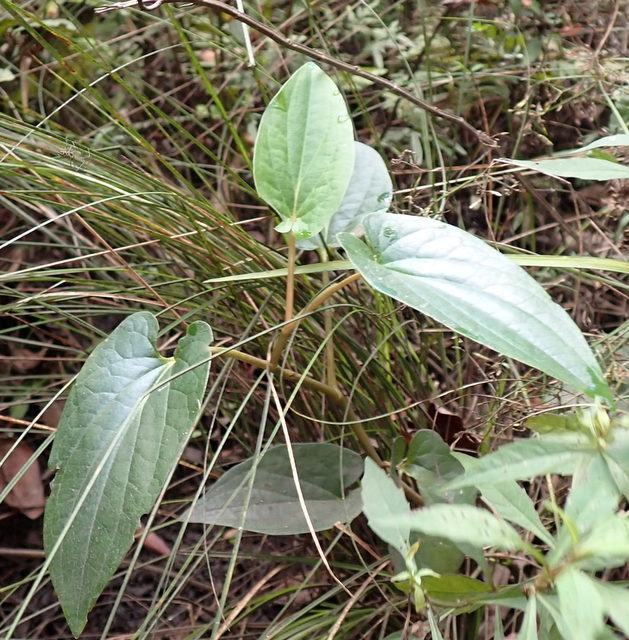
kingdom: Plantae
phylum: Tracheophyta
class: Magnoliopsida
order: Piperales
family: Saururaceae
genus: Saururus
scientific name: Saururus cernuus
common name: Lizard's-tail
